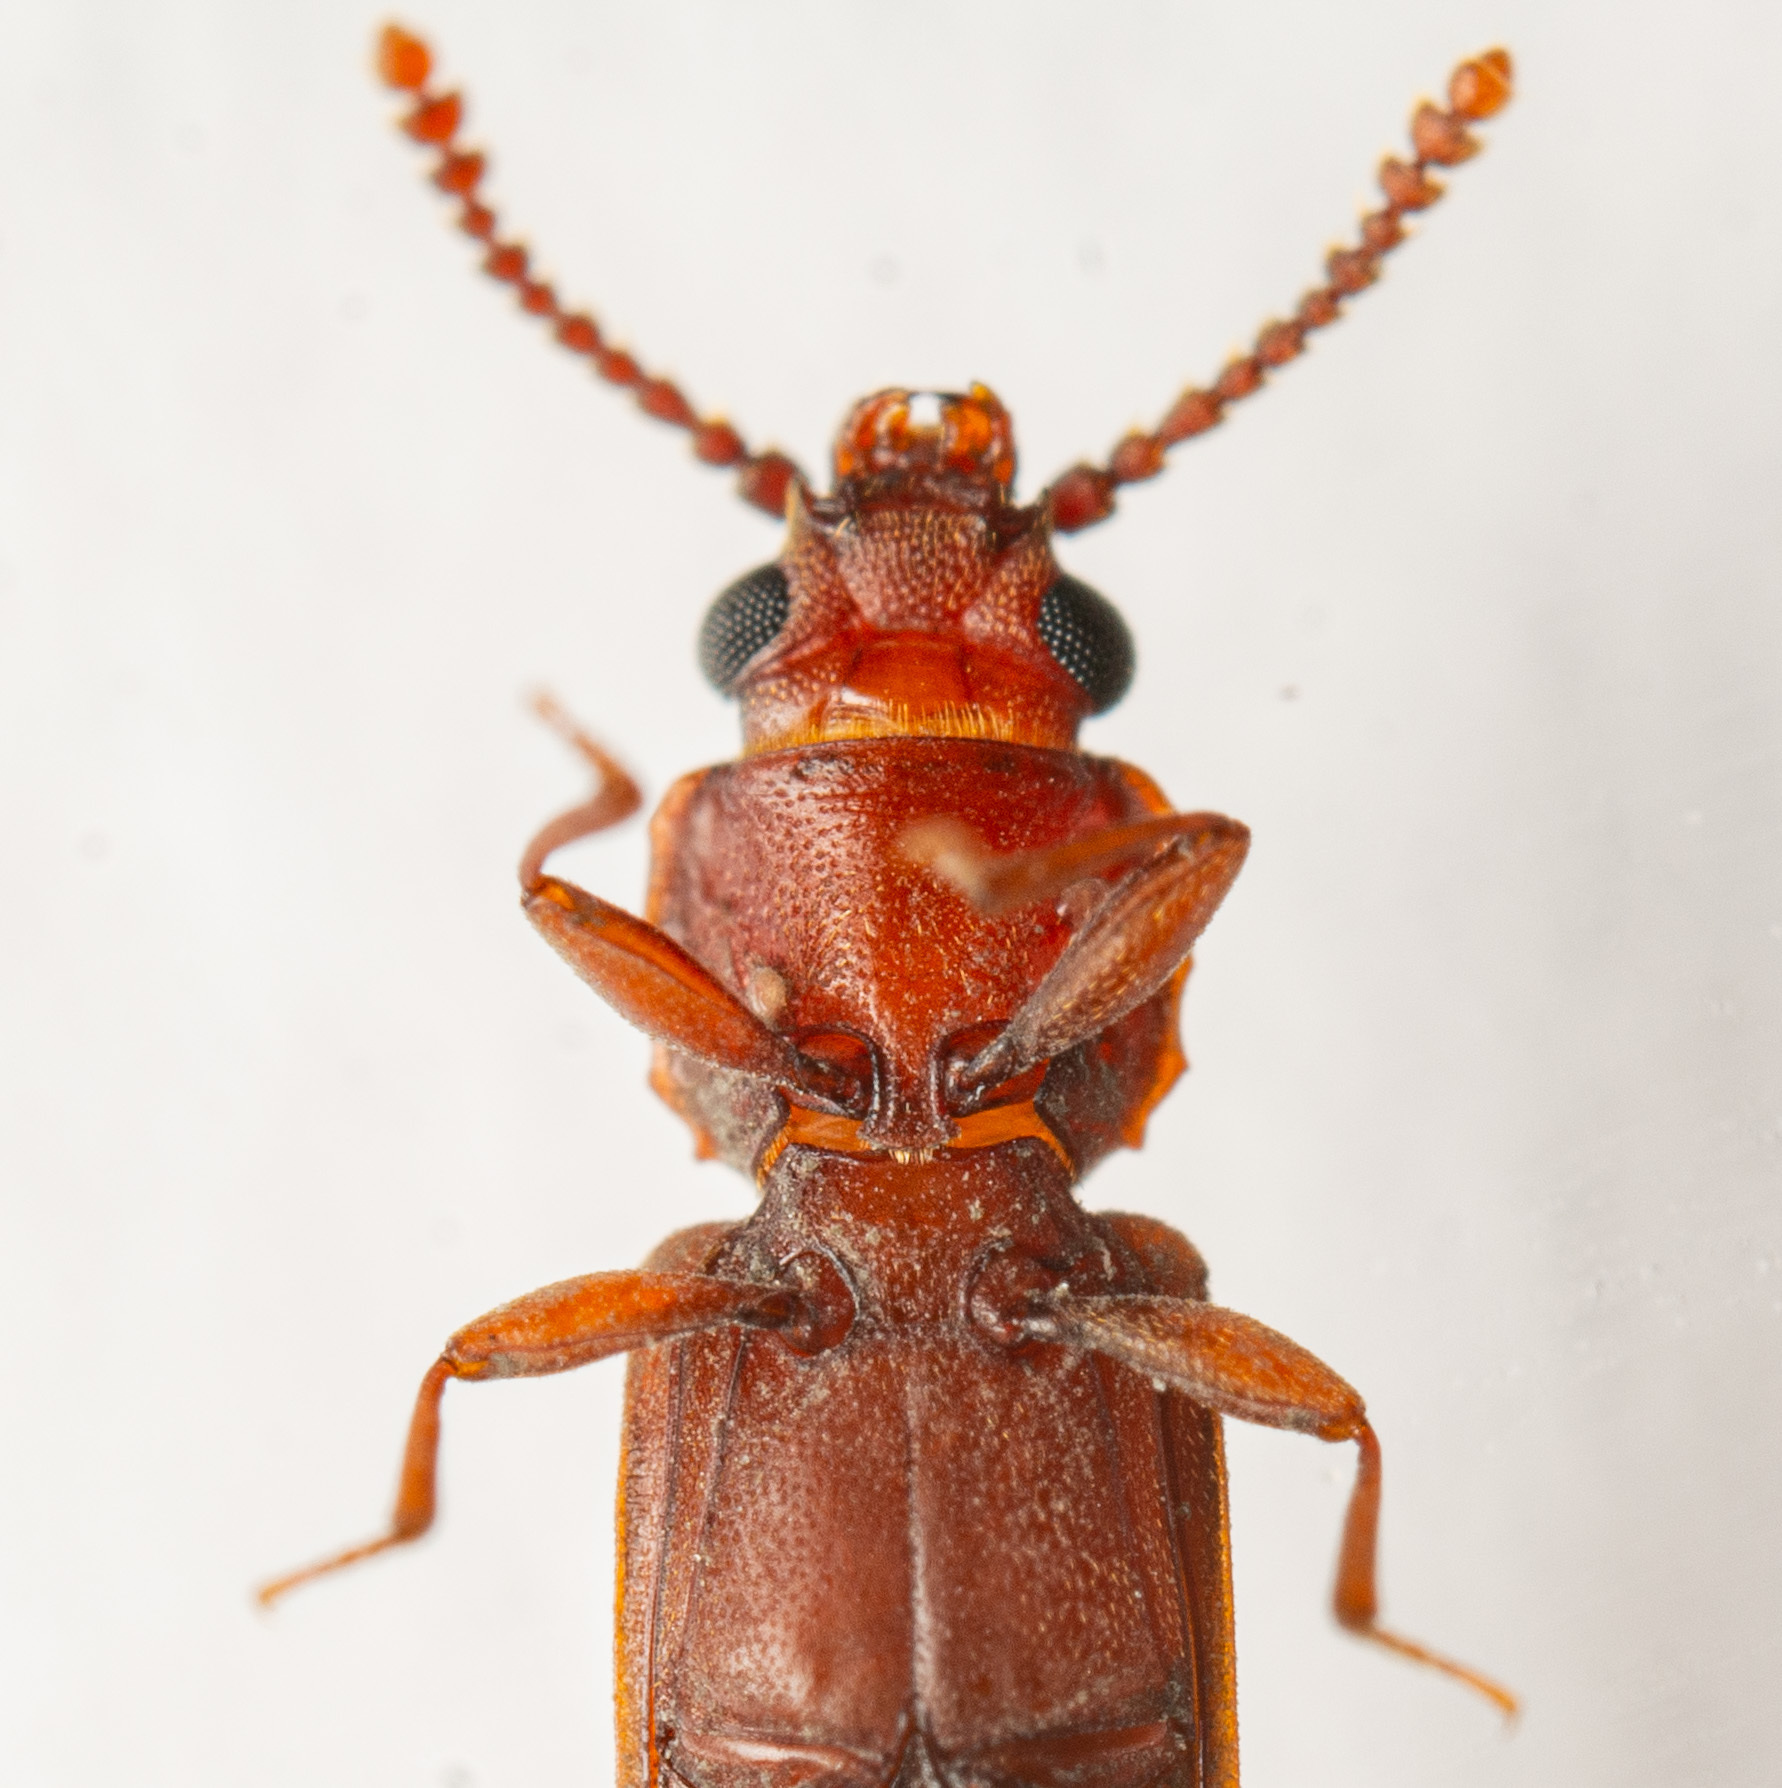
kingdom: Animalia
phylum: Arthropoda
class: Insecta
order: Coleoptera
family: Cucujidae
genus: Pediacus
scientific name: Pediacus subglaber
